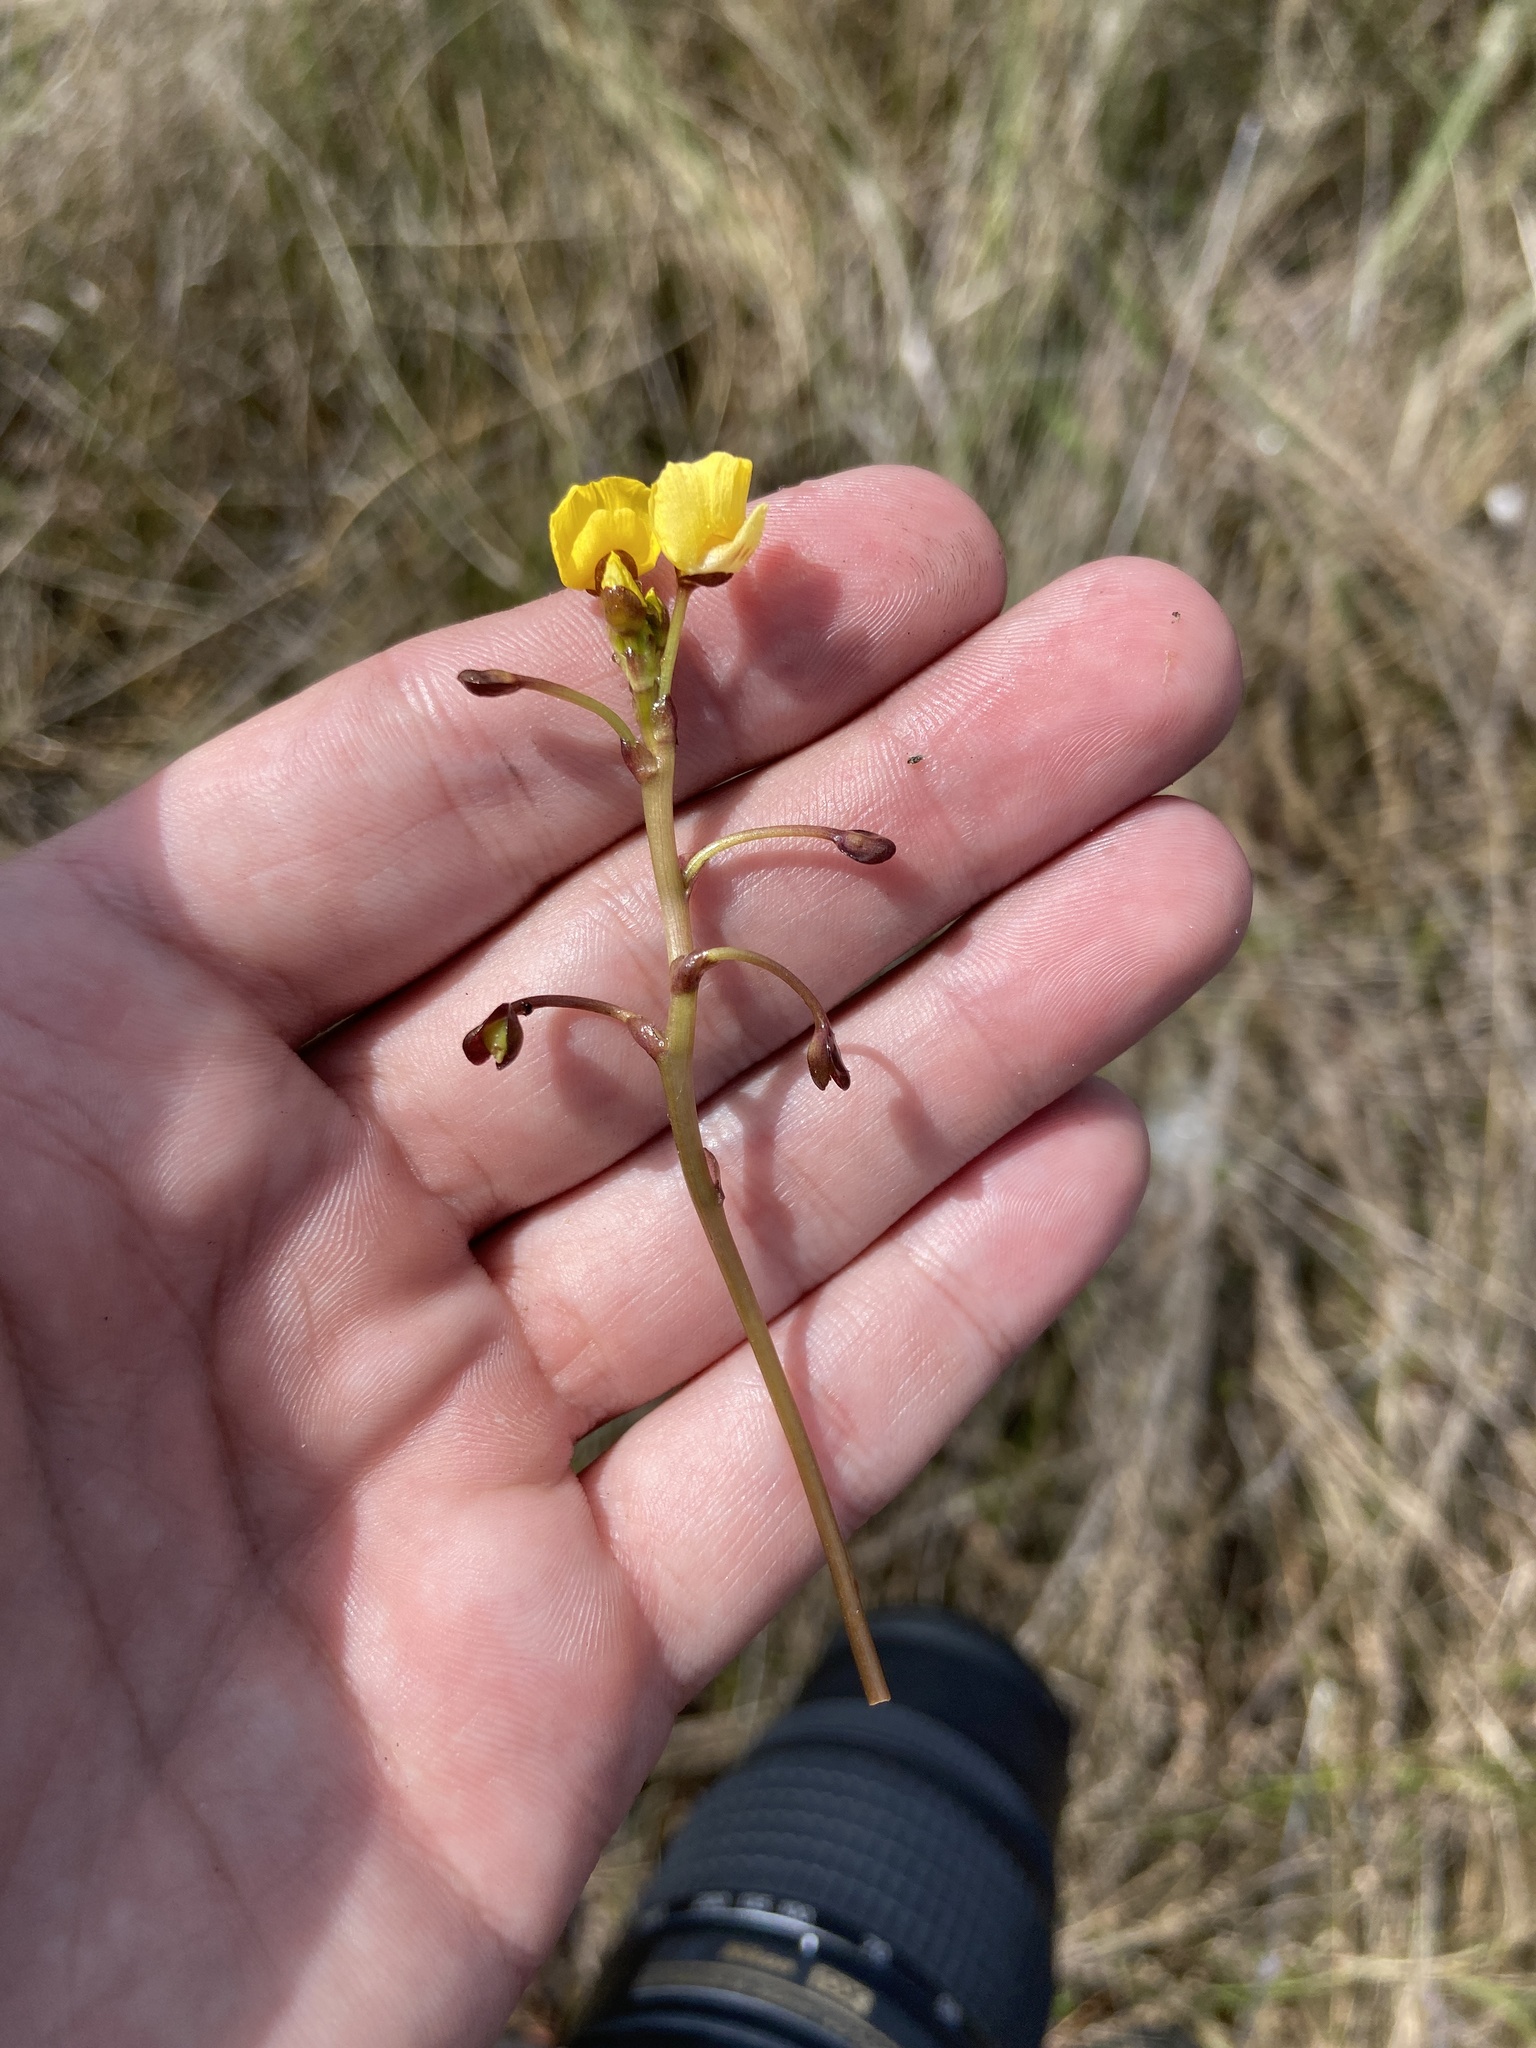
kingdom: Plantae
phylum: Tracheophyta
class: Magnoliopsida
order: Lamiales
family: Lentibulariaceae
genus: Utricularia
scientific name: Utricularia foliosa
